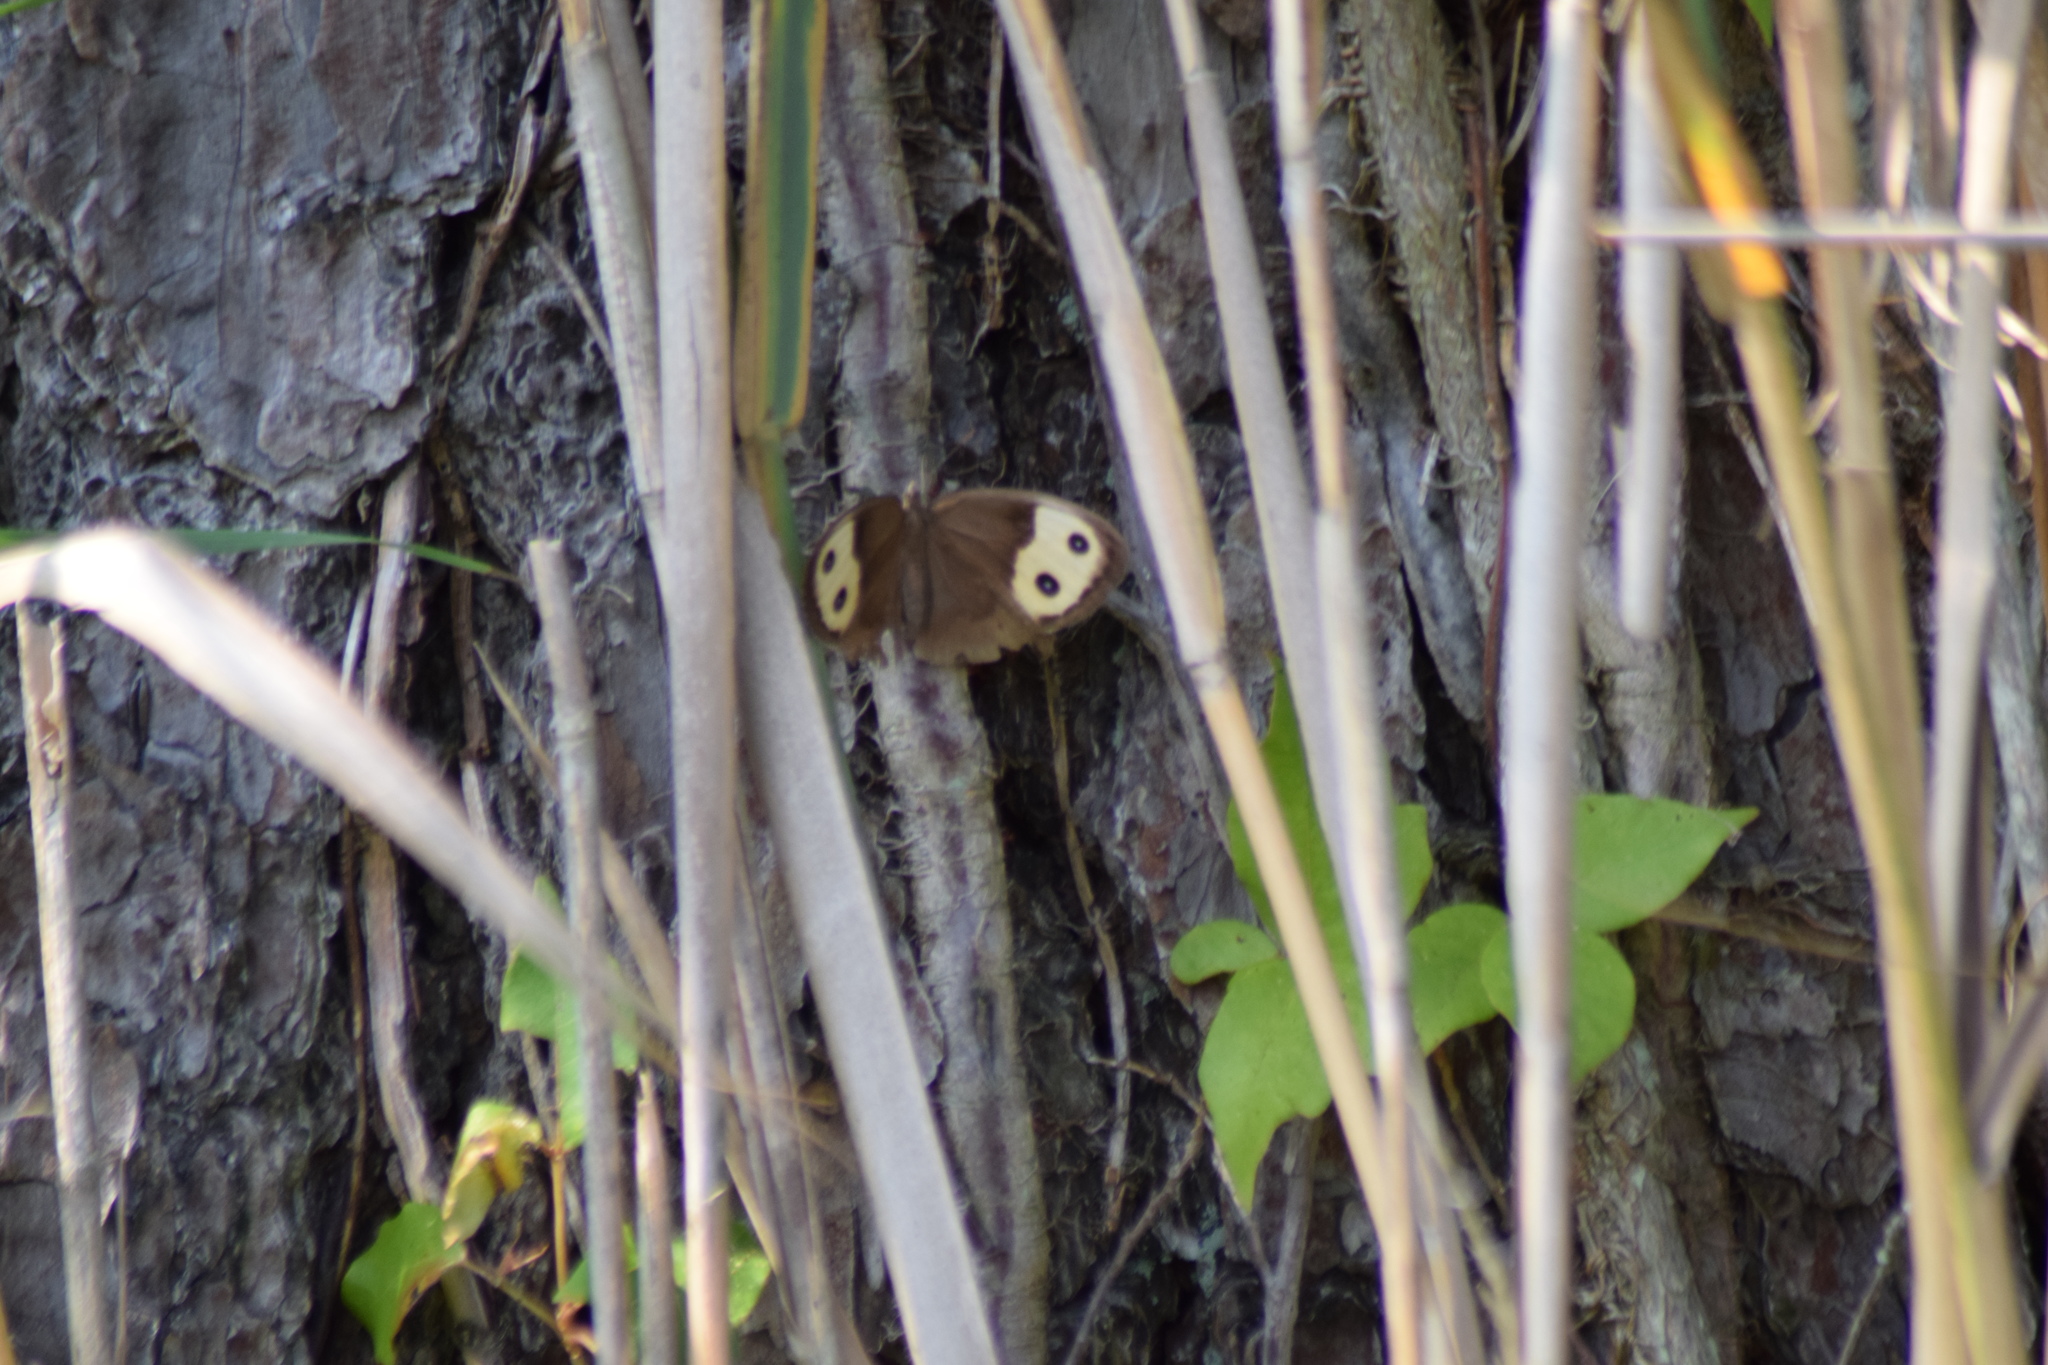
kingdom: Animalia
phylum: Arthropoda
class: Insecta
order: Lepidoptera
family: Nymphalidae
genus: Cercyonis
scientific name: Cercyonis pegala
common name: Common wood-nymph
